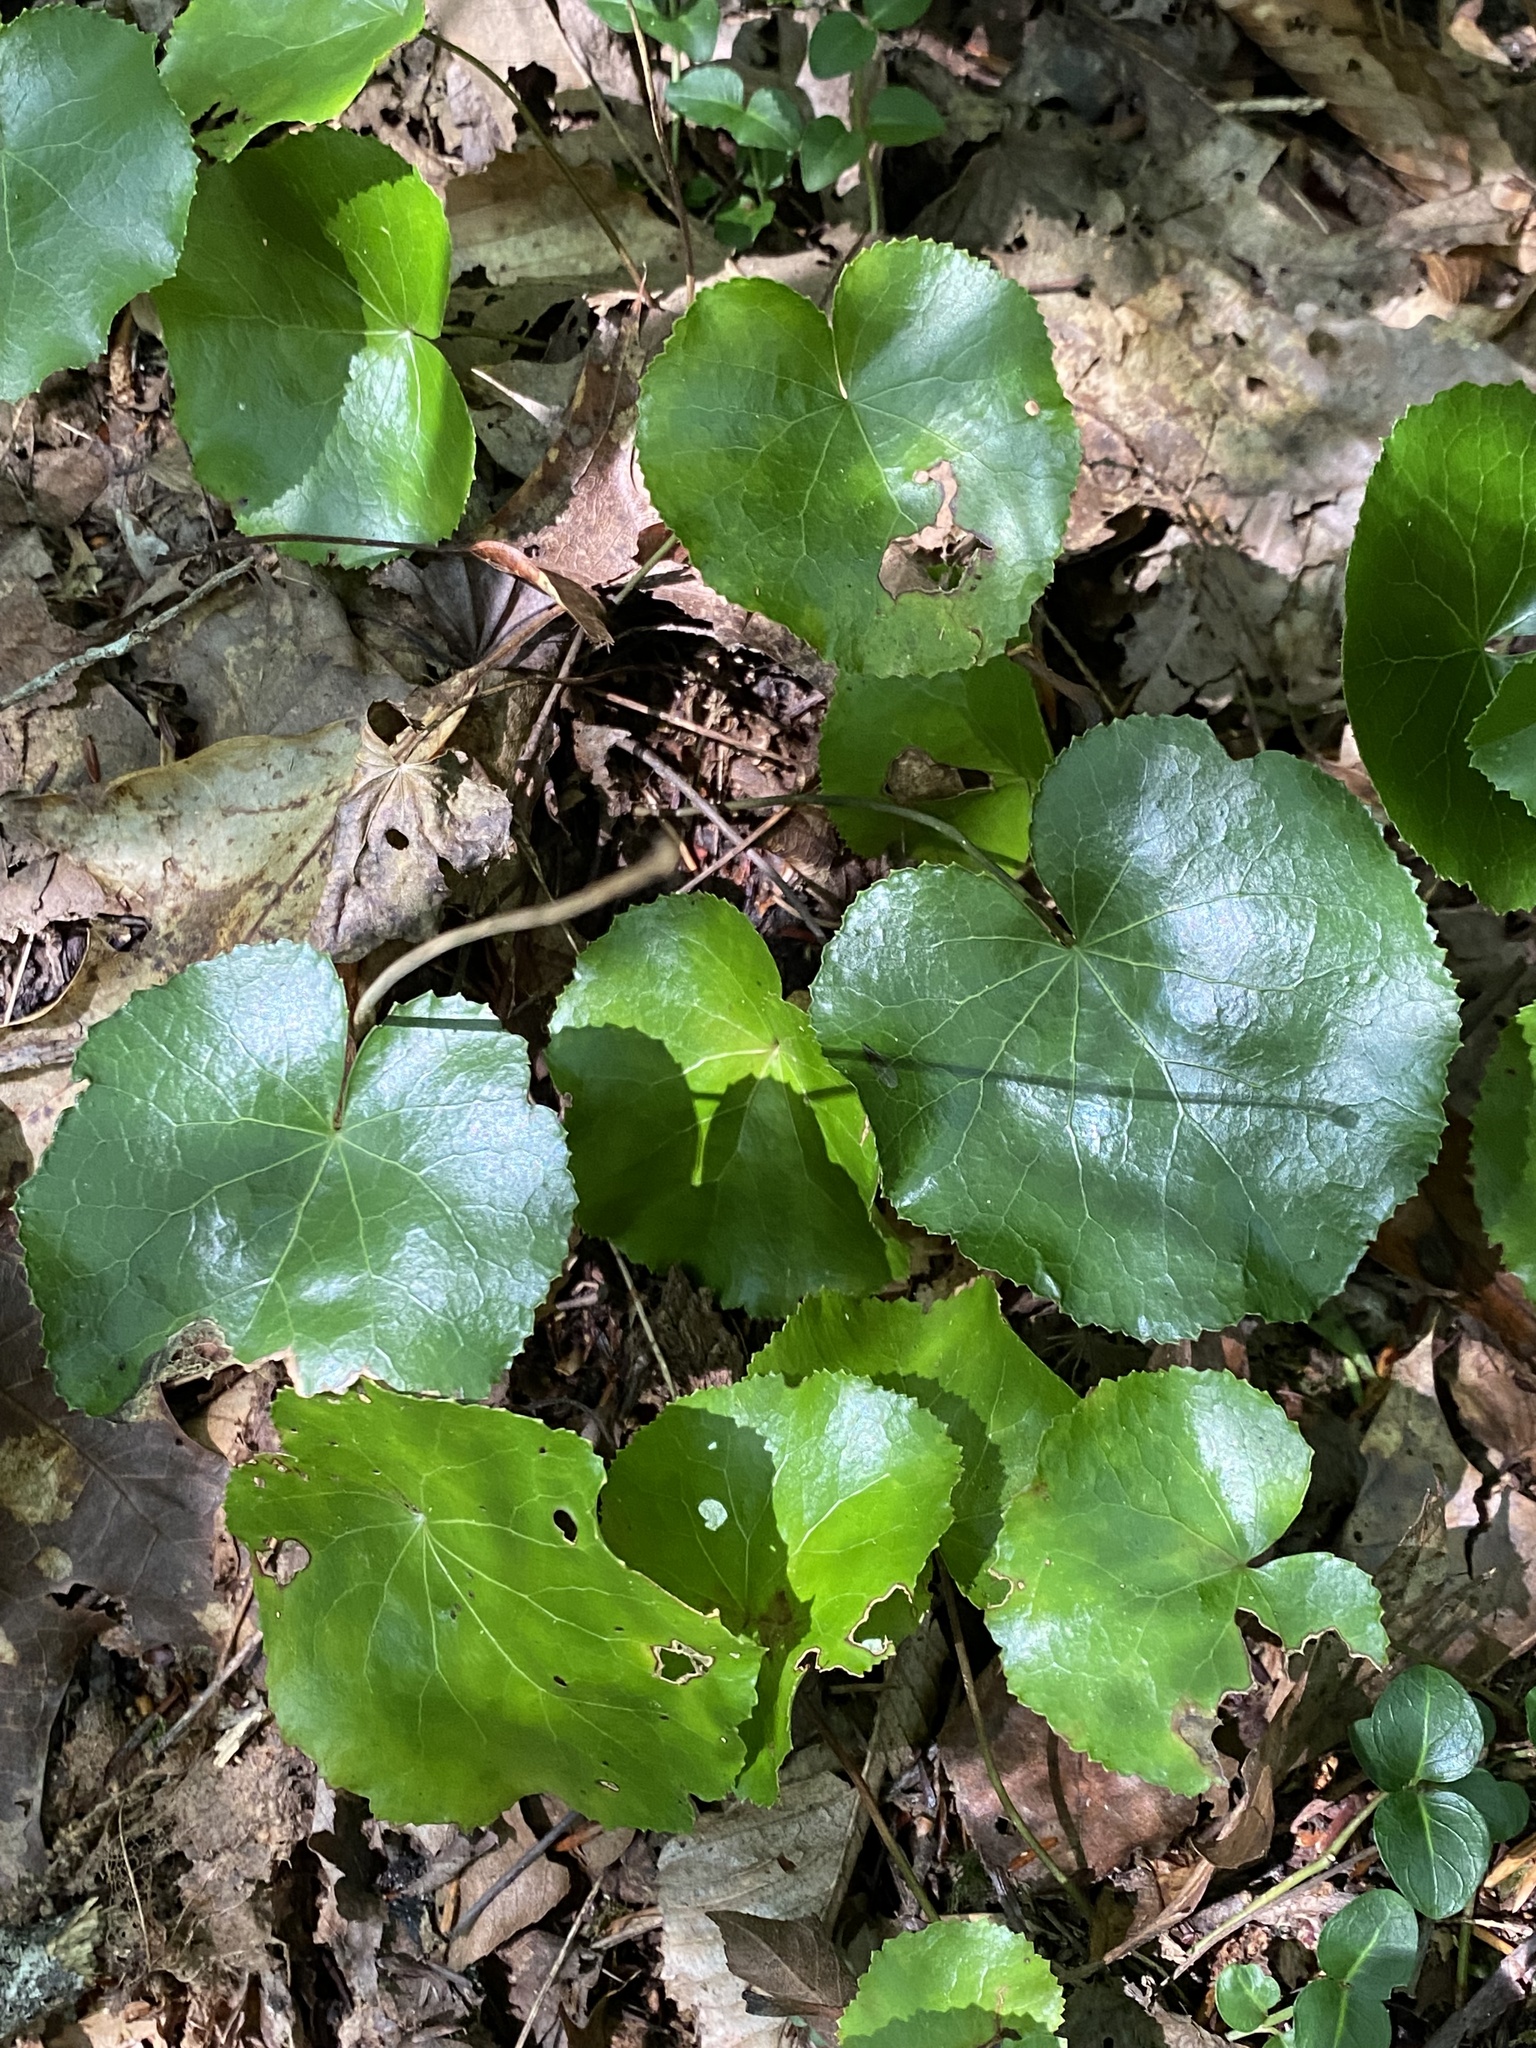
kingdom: Plantae
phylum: Tracheophyta
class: Magnoliopsida
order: Ericales
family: Diapensiaceae
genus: Galax
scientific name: Galax urceolata
